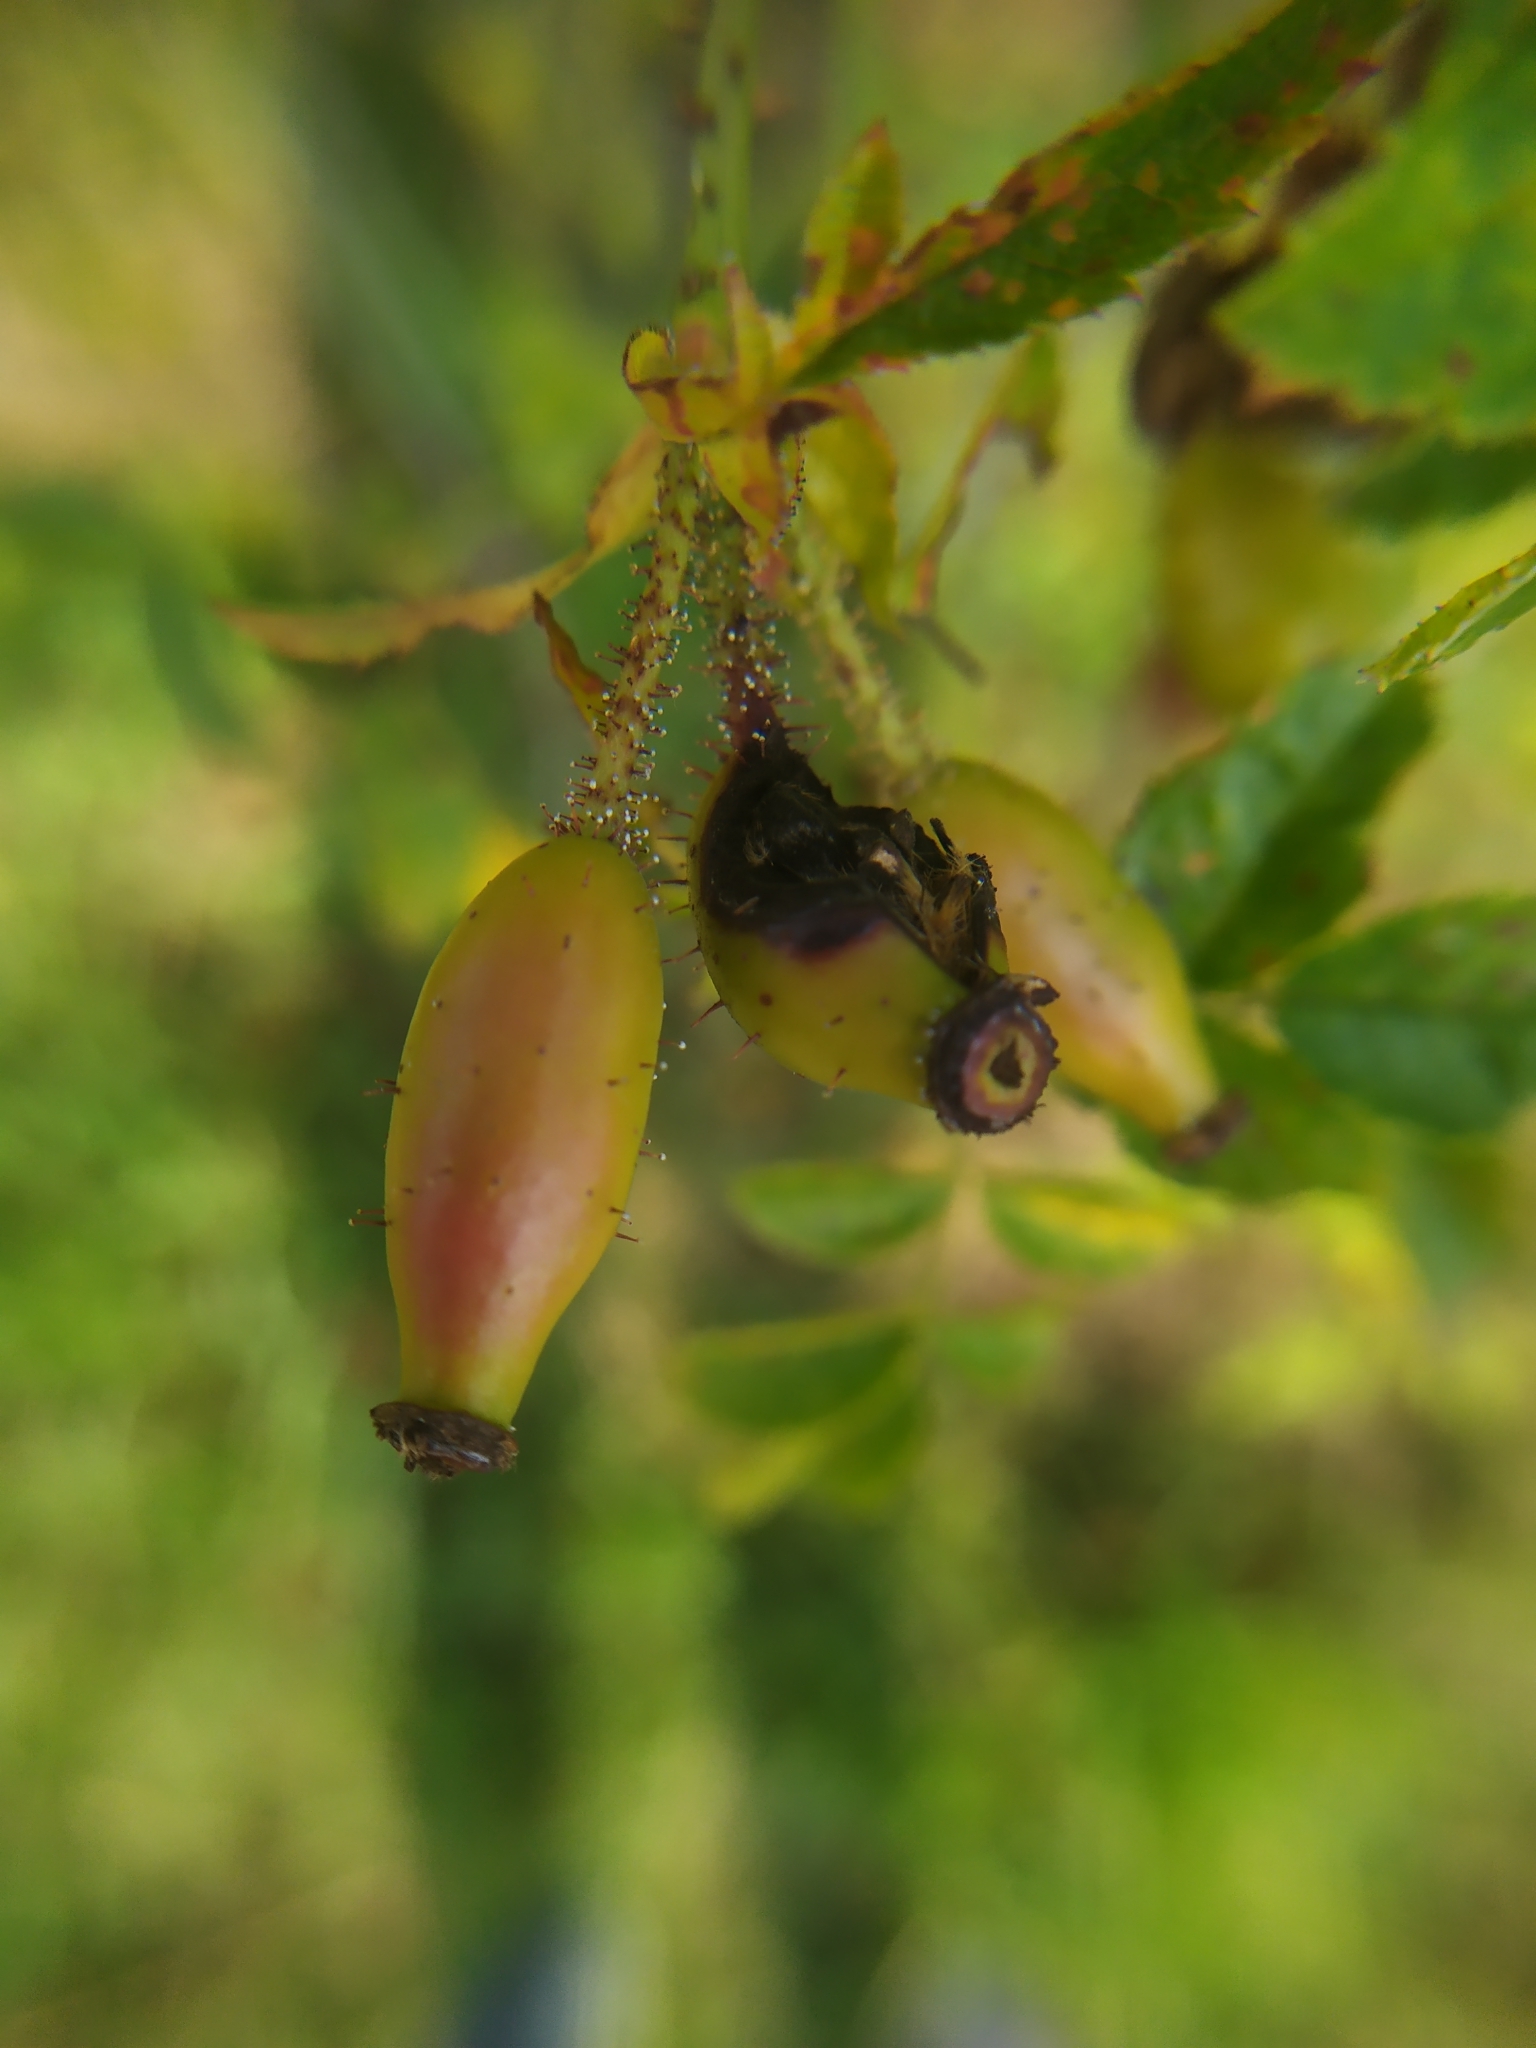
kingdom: Plantae
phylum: Tracheophyta
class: Magnoliopsida
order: Rosales
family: Rosaceae
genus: Rosa
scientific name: Rosa micrantha
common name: Small-flowered sweet-briar
